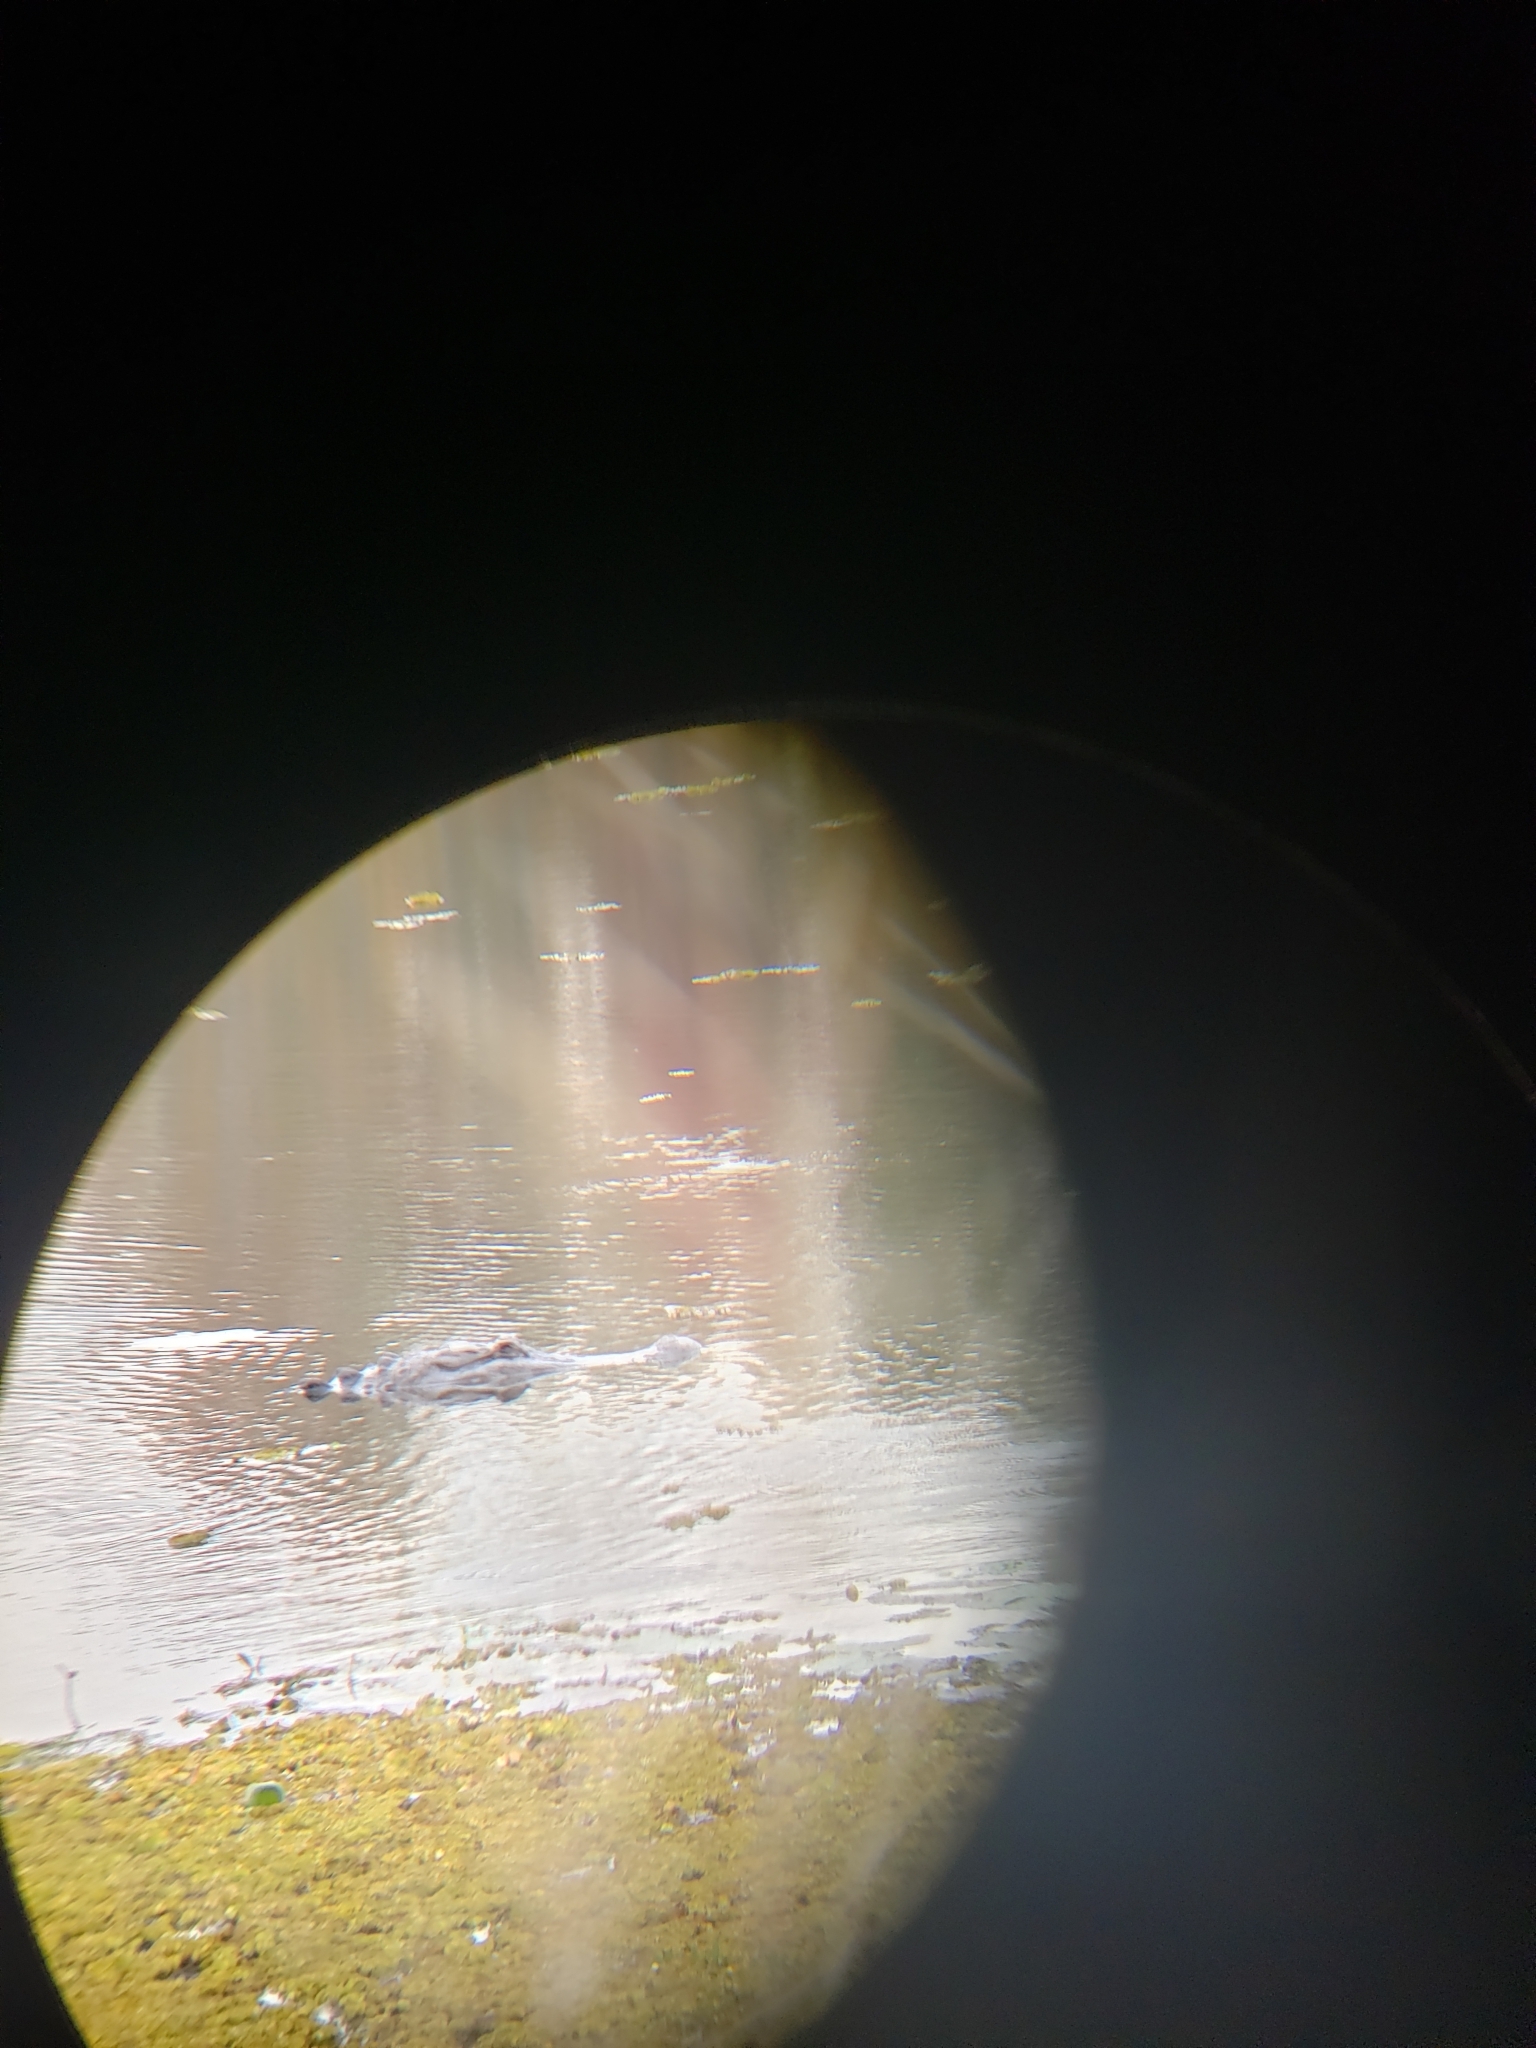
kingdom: Animalia
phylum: Chordata
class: Crocodylia
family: Alligatoridae
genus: Alligator
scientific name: Alligator mississippiensis
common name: American alligator
